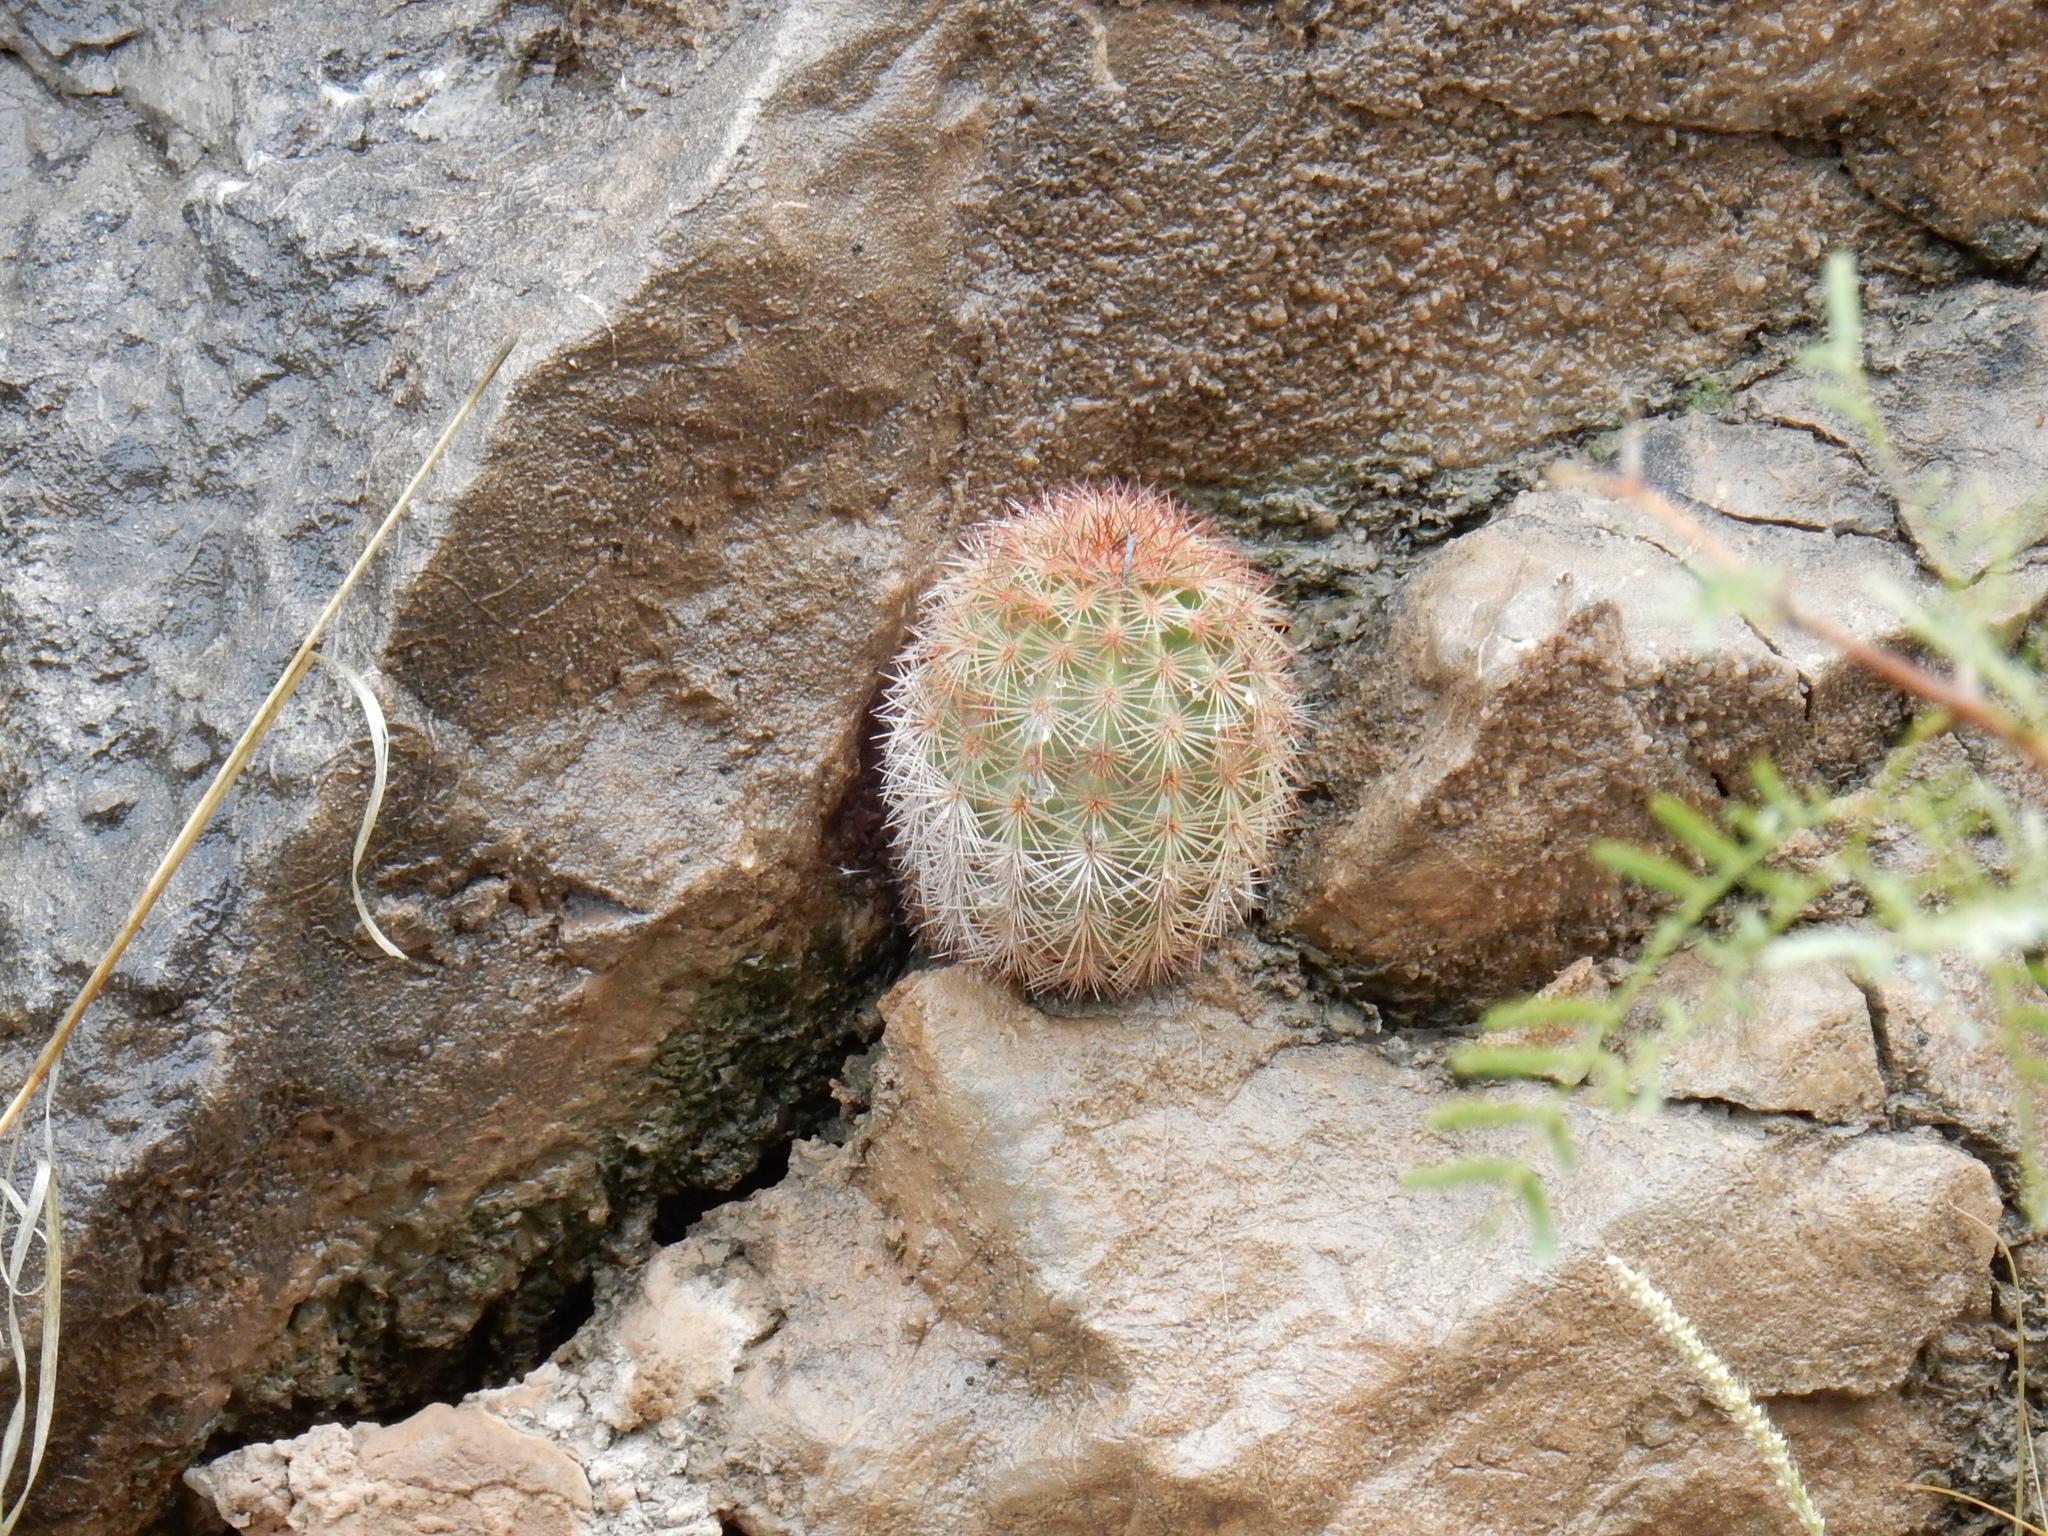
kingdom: Plantae
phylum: Tracheophyta
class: Magnoliopsida
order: Caryophyllales
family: Cactaceae
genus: Echinocereus
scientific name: Echinocereus dasyacanthus
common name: Spiny hedgehog cactus
